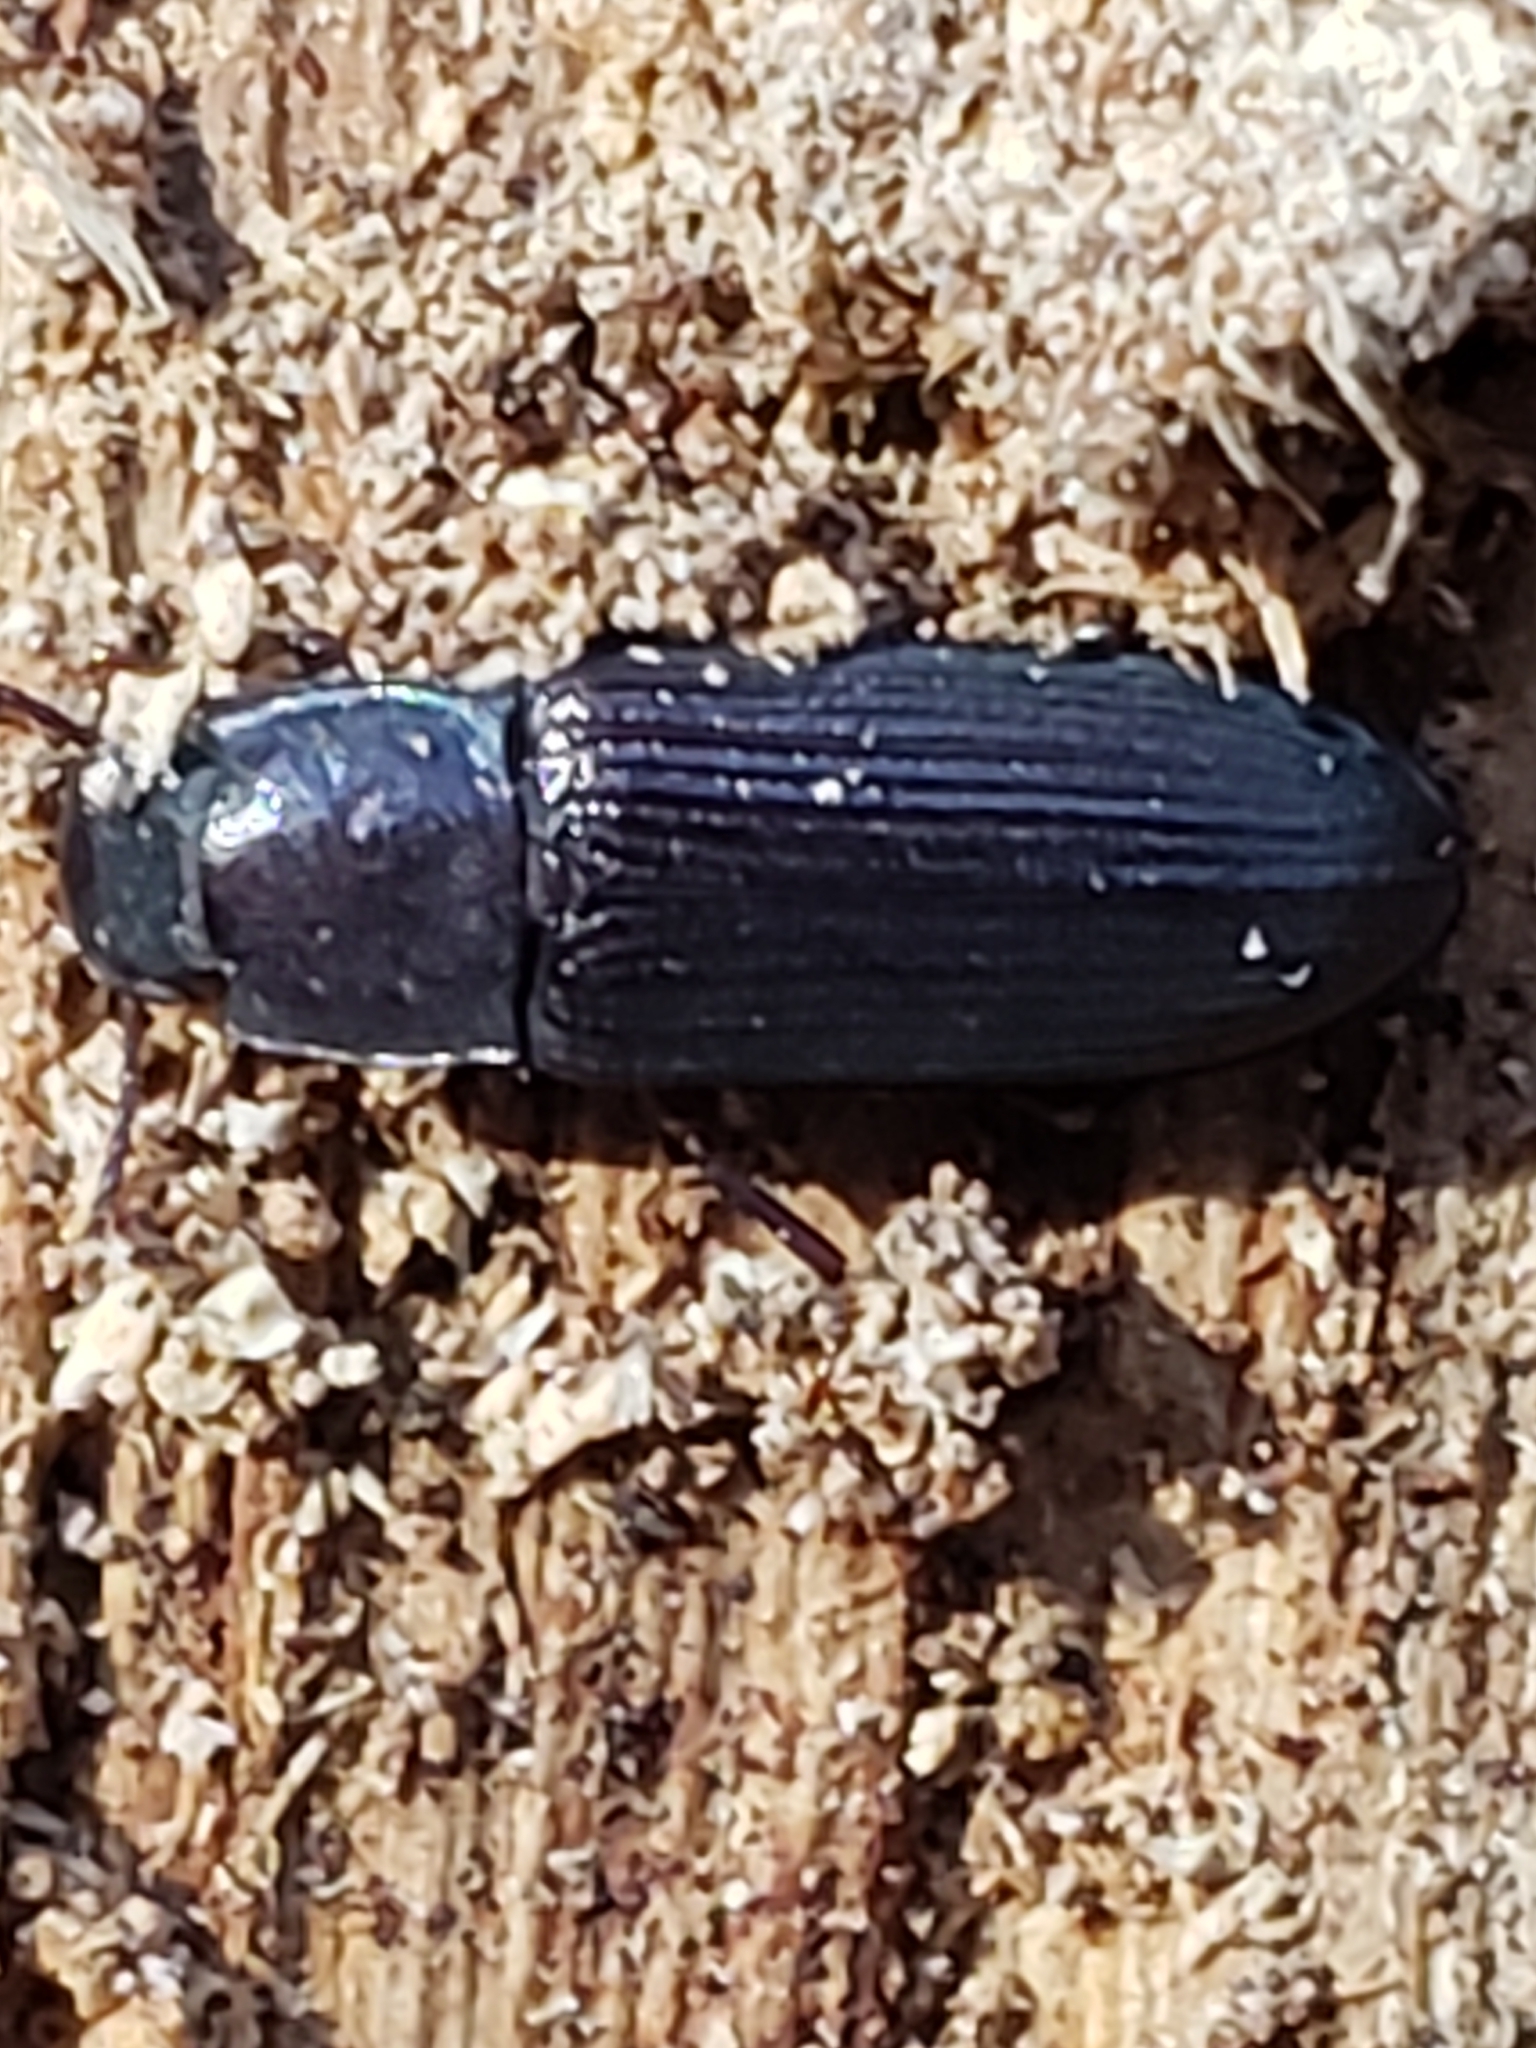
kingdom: Animalia
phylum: Arthropoda
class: Insecta
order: Coleoptera
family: Tenebrionidae
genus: Idiobates
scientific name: Idiobates castaneus
